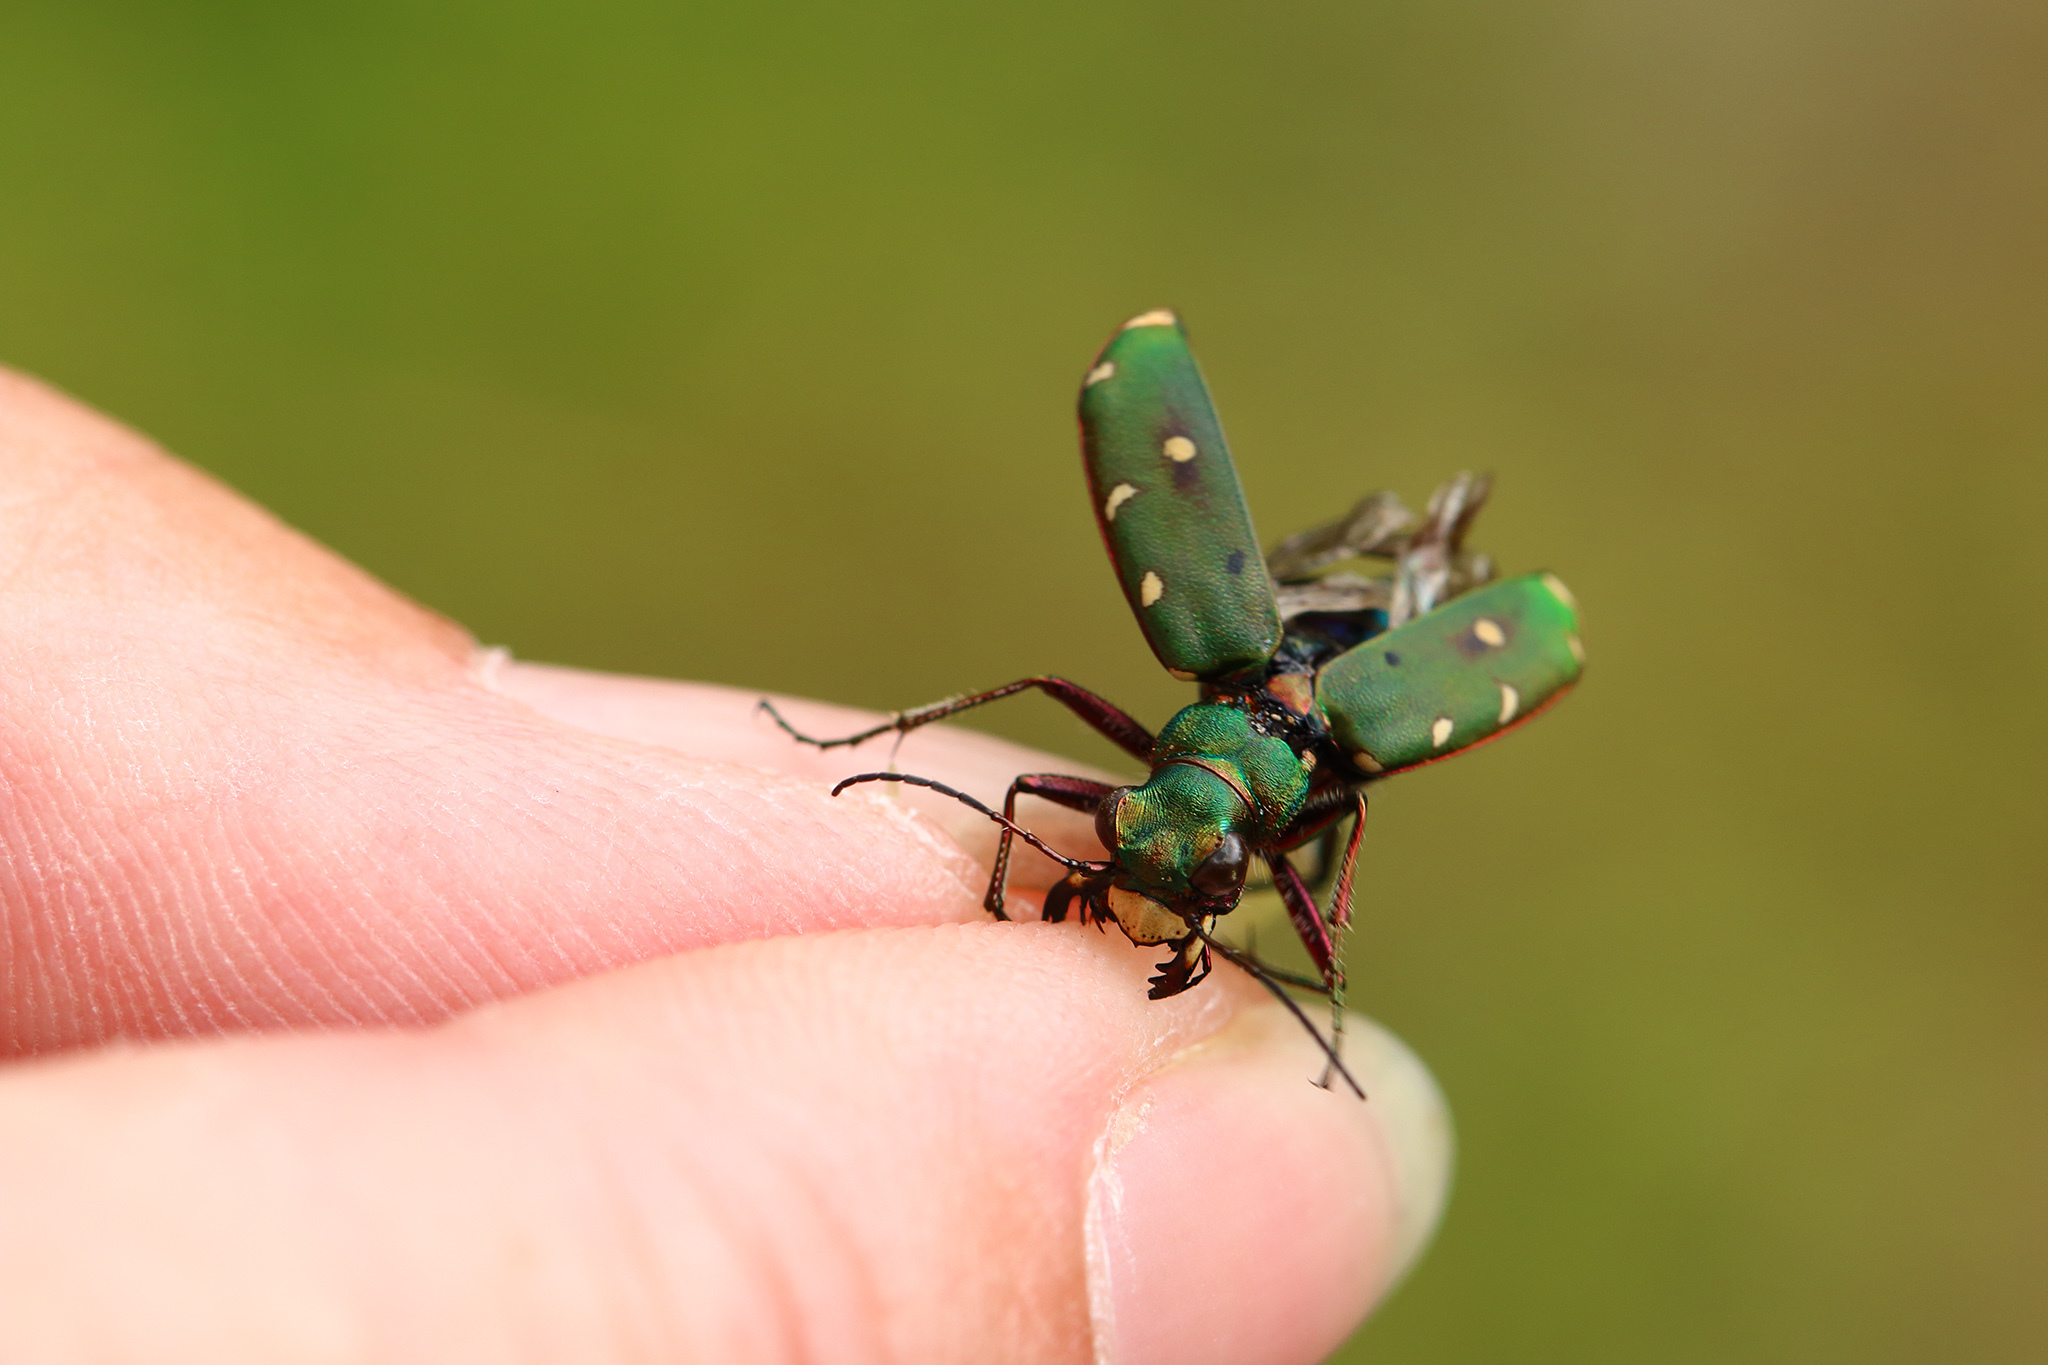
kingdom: Animalia
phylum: Arthropoda
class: Insecta
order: Coleoptera
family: Carabidae
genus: Cicindela
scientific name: Cicindela campestris
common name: Common tiger beetle
